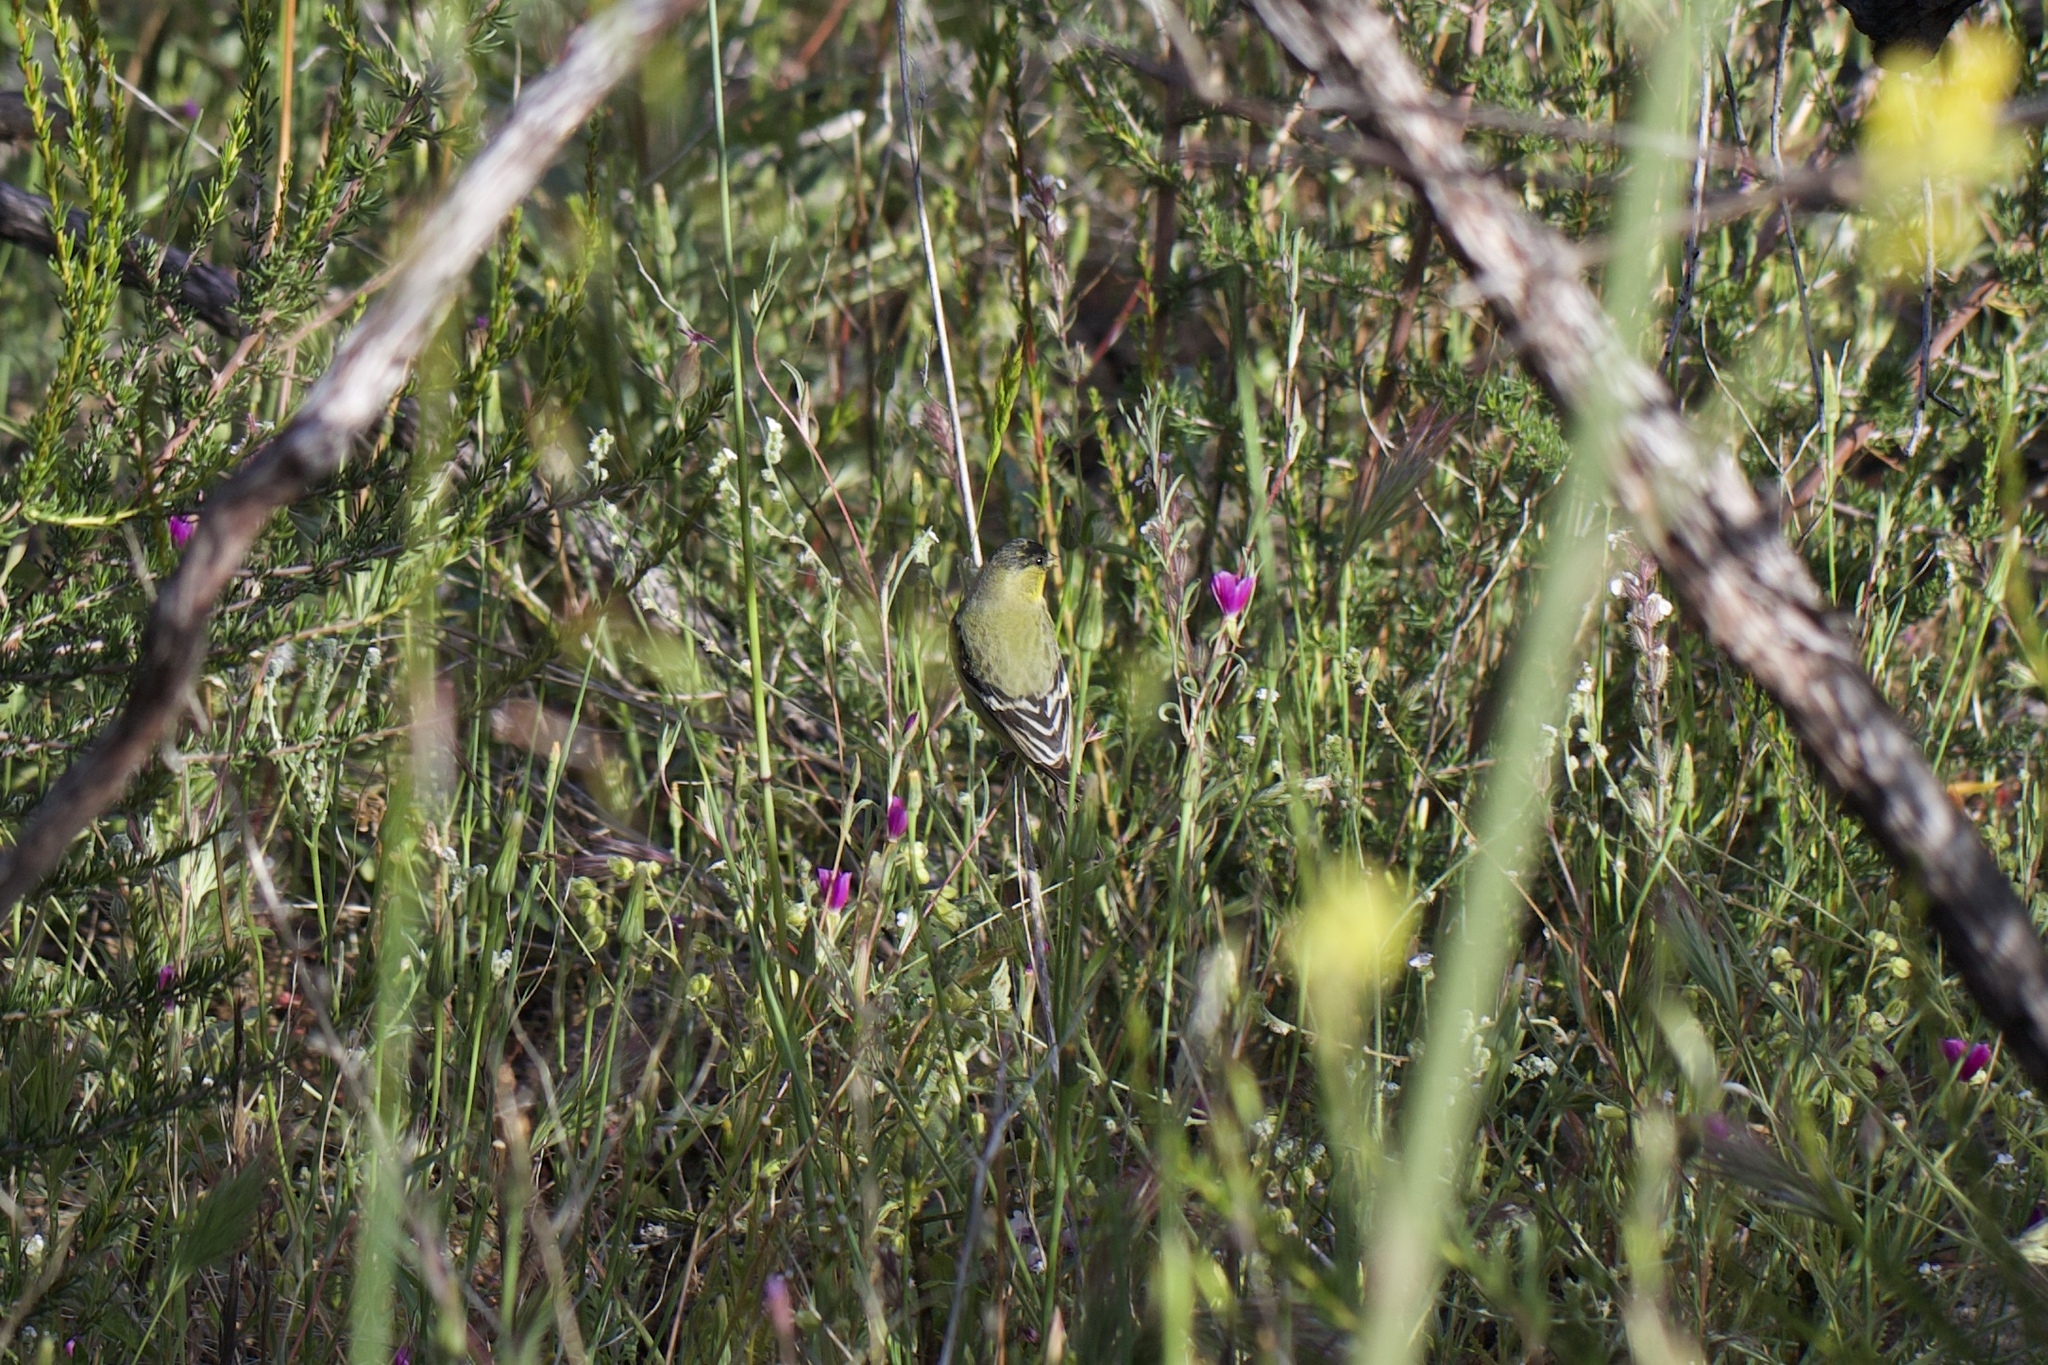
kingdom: Animalia
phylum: Chordata
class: Aves
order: Passeriformes
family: Fringillidae
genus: Spinus
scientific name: Spinus psaltria
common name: Lesser goldfinch
